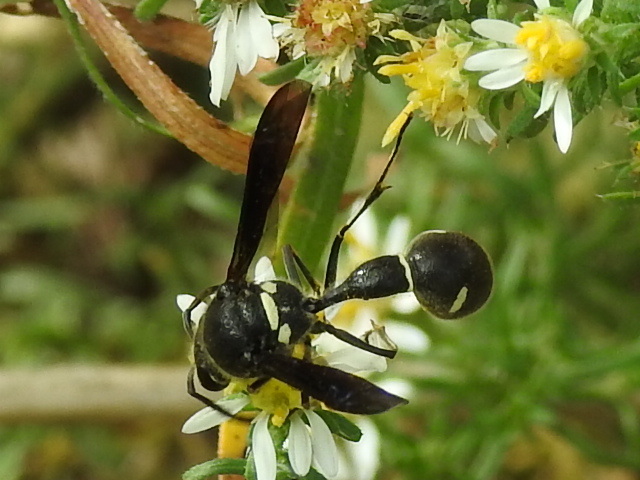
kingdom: Animalia
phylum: Arthropoda
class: Insecta
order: Hymenoptera
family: Vespidae
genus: Eumenes
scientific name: Eumenes fraternus
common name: Fraternal potter wasp
